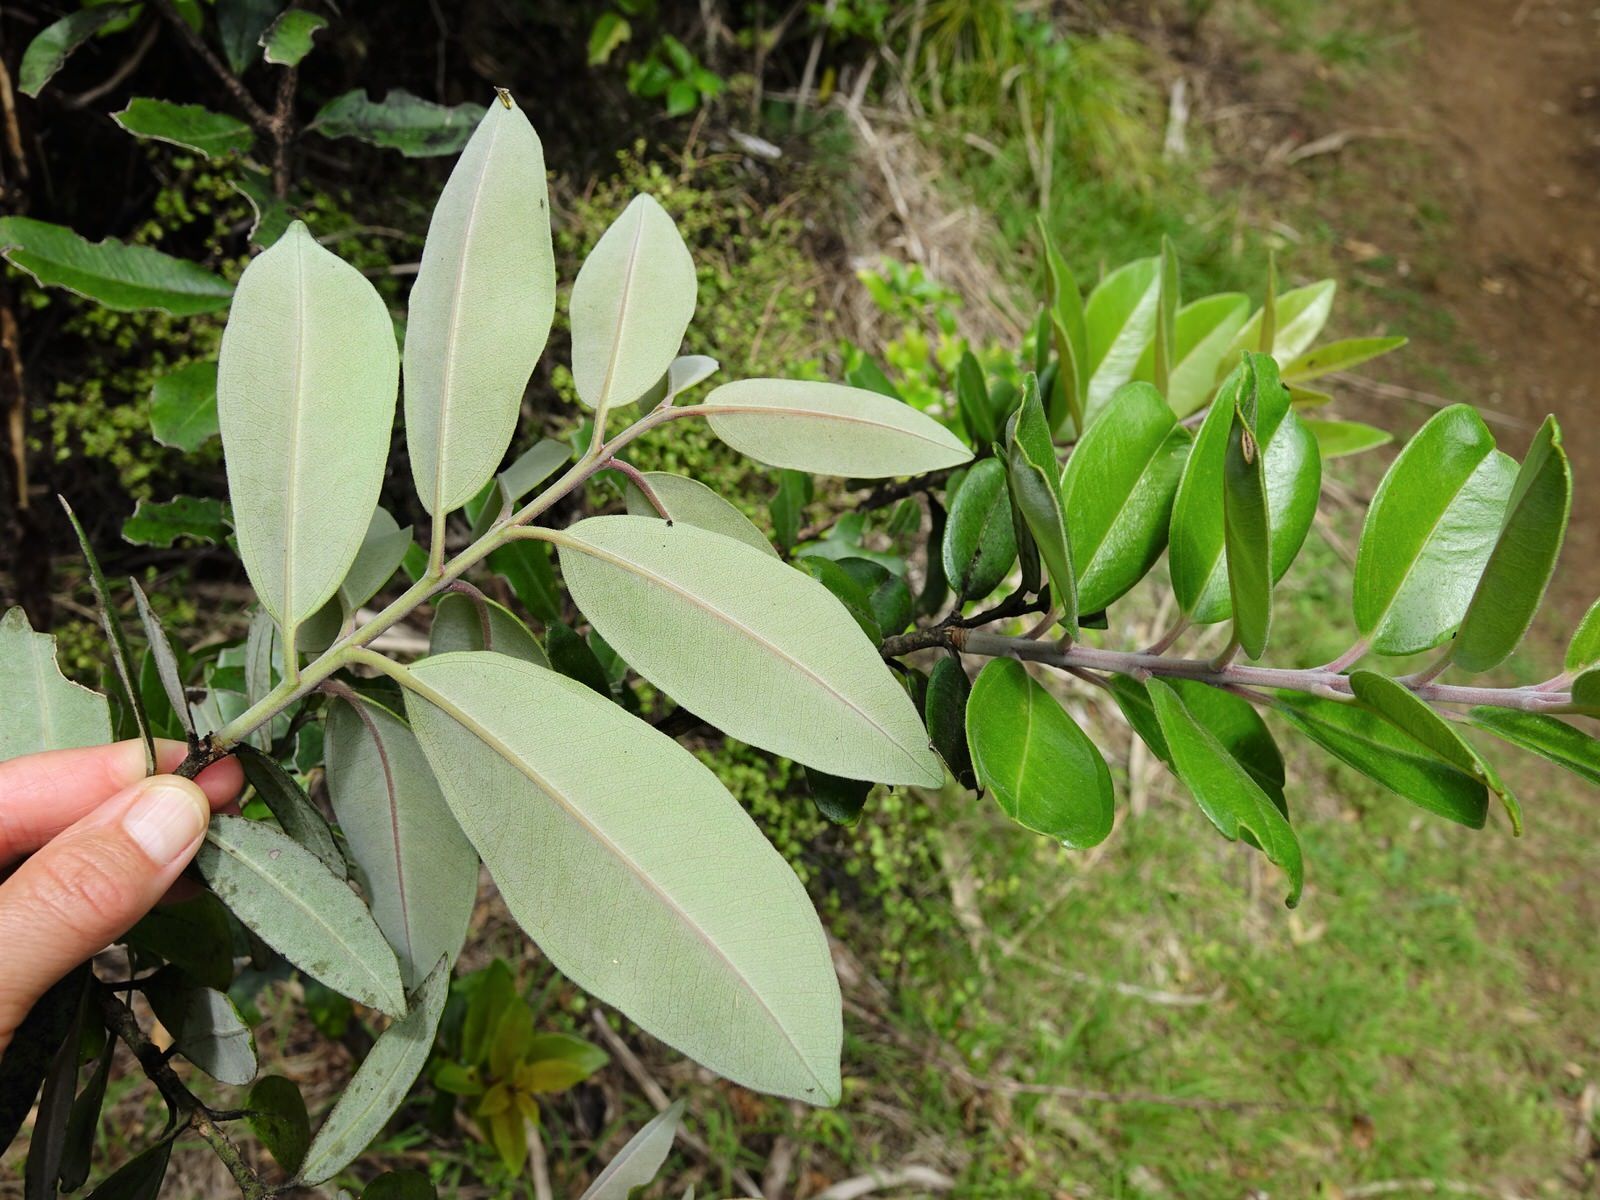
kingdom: Plantae
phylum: Tracheophyta
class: Magnoliopsida
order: Myrtales
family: Myrtaceae
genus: Metrosideros
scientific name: Metrosideros excelsa
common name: New zealand christmastree
